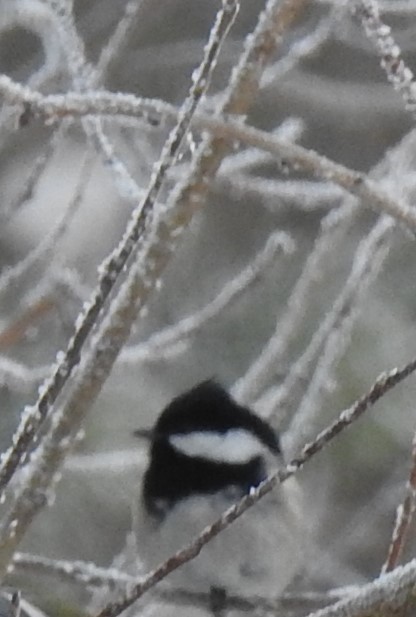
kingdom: Animalia
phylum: Chordata
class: Aves
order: Passeriformes
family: Paridae
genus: Periparus
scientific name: Periparus ater
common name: Coal tit
